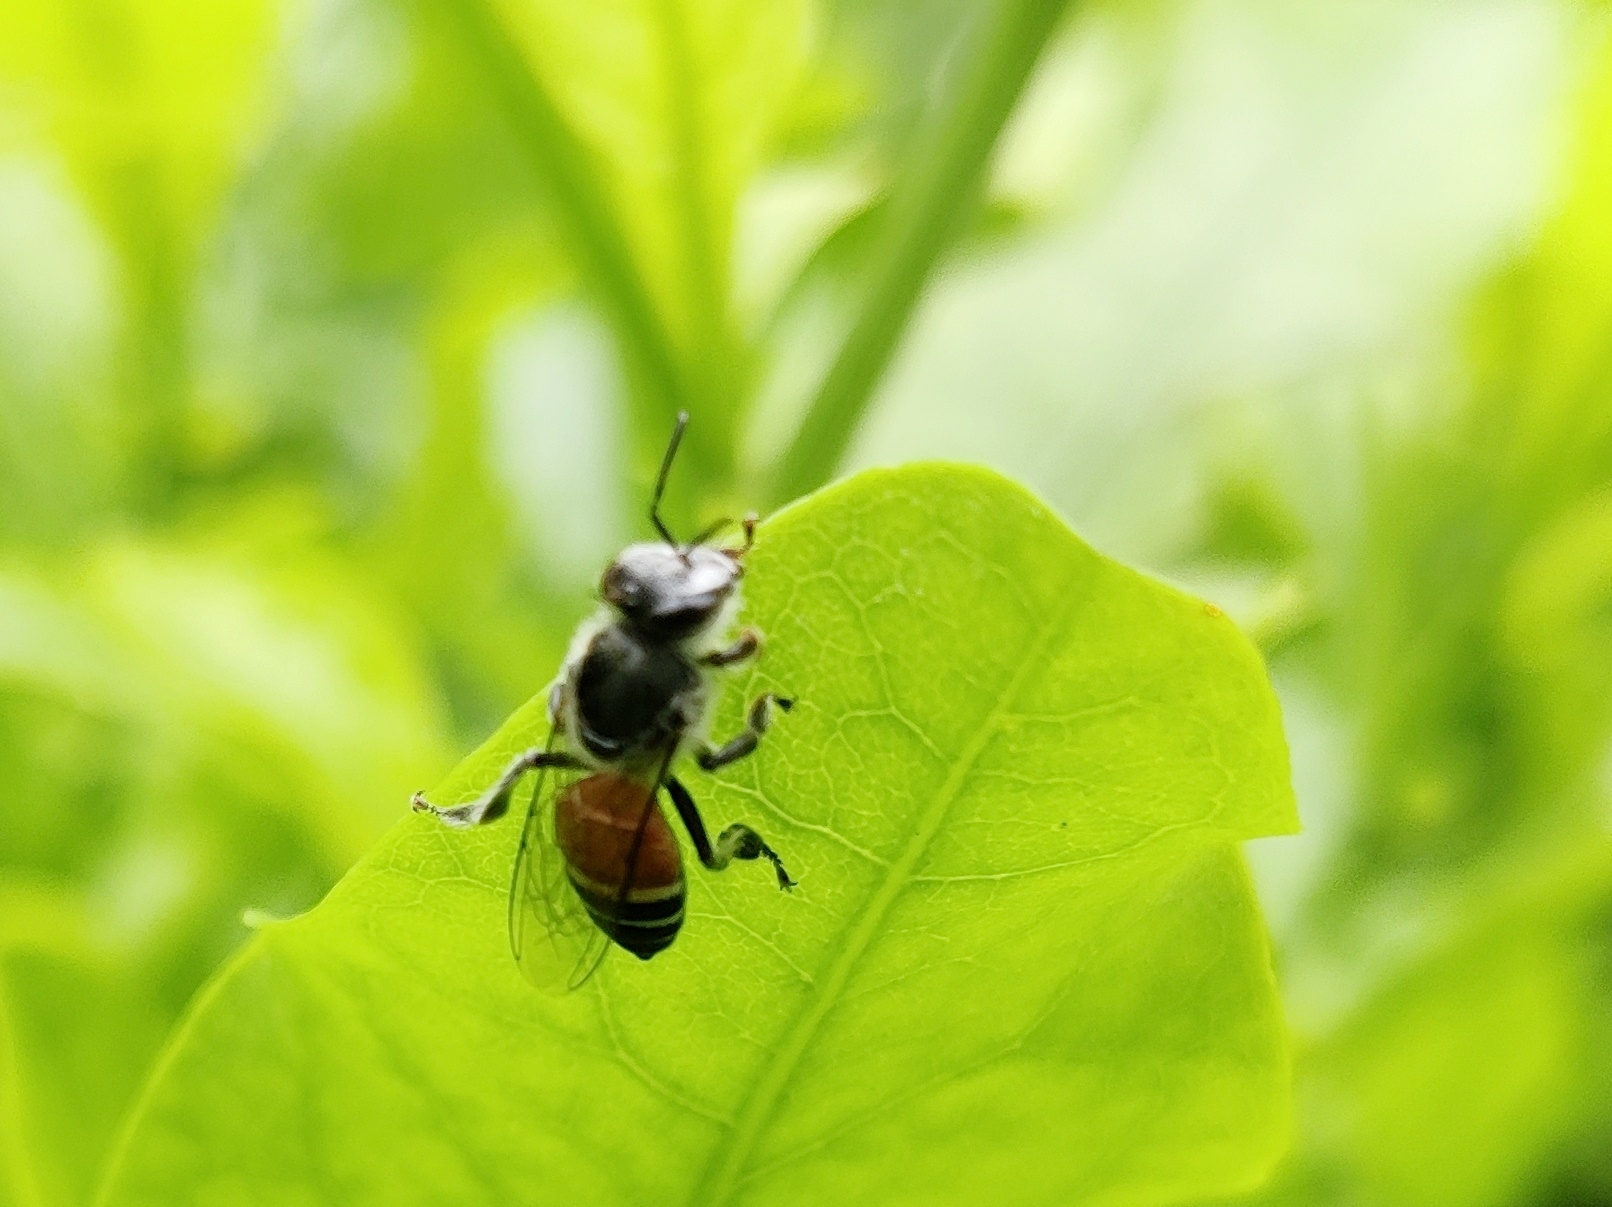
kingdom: Animalia
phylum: Arthropoda
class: Insecta
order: Hymenoptera
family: Apidae
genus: Apis
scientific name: Apis florea
